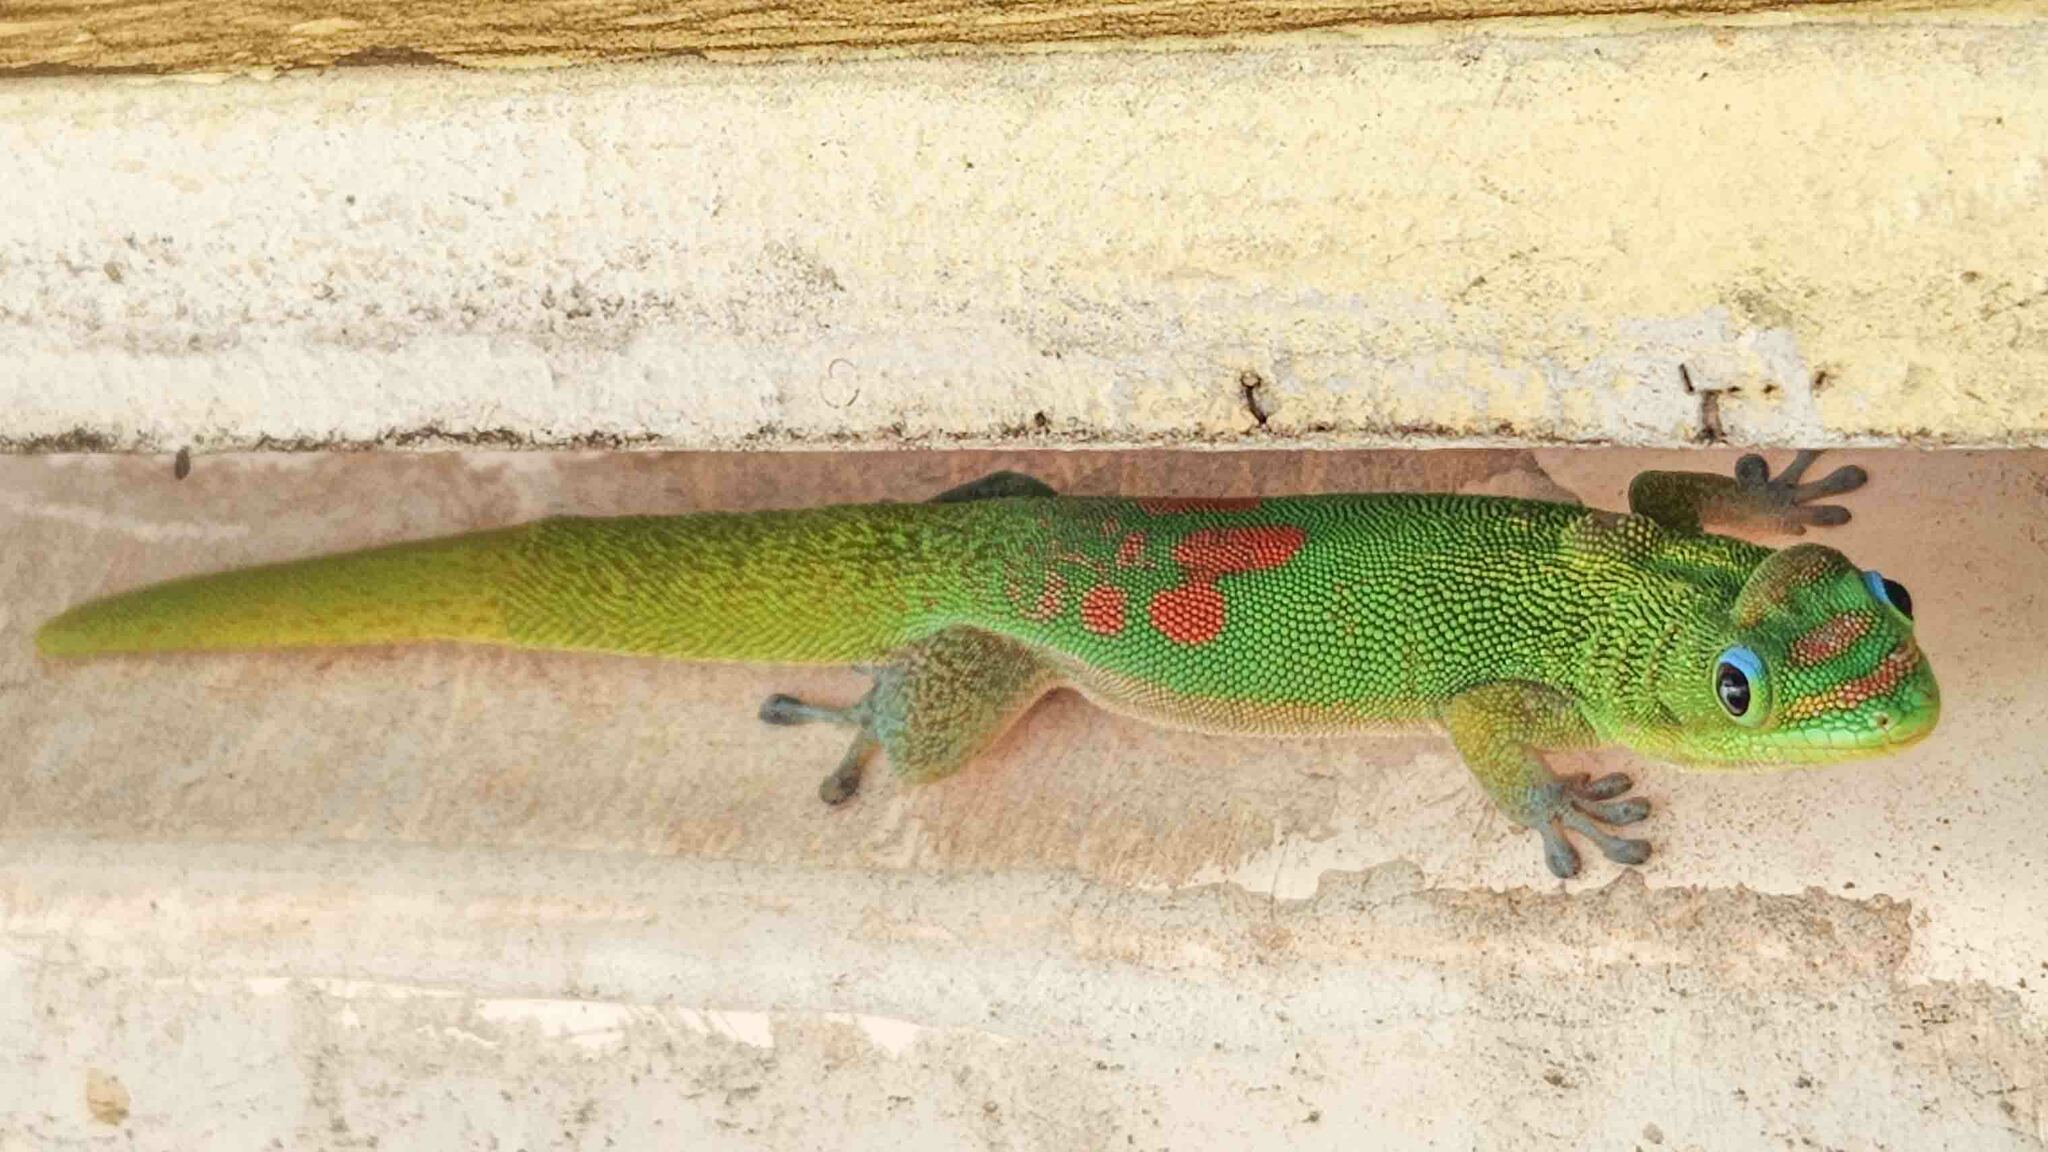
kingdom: Animalia
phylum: Chordata
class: Squamata
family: Gekkonidae
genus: Phelsuma
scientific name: Phelsuma laticauda
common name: Gold dust day gecko
